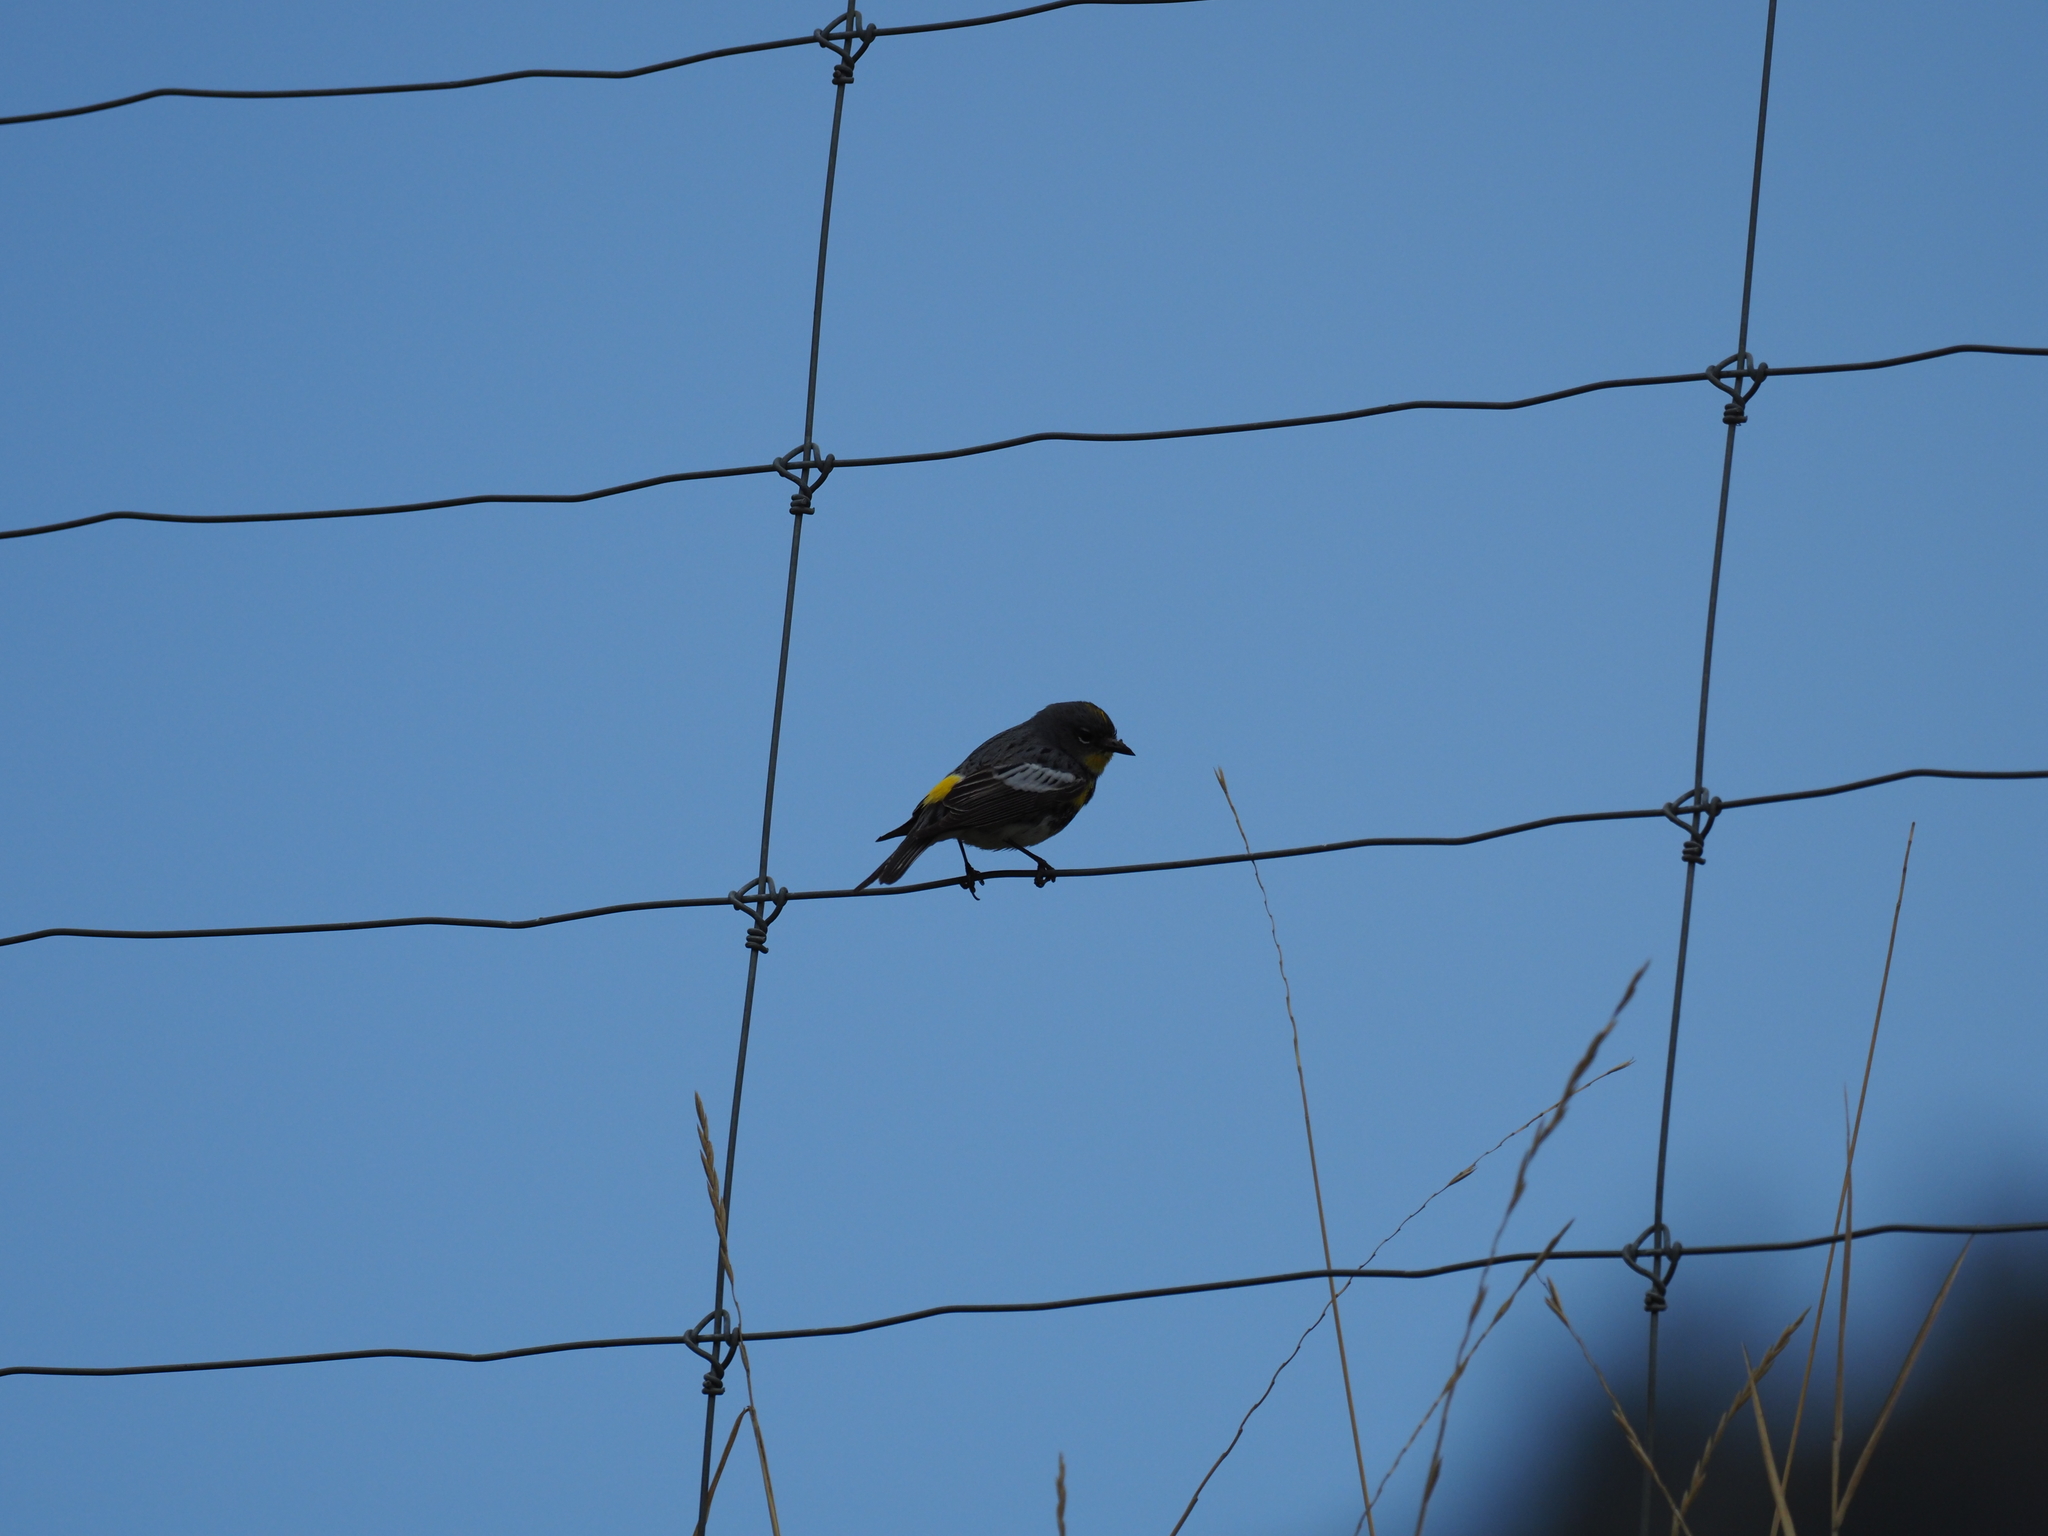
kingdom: Animalia
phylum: Chordata
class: Aves
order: Passeriformes
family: Parulidae
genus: Setophaga
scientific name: Setophaga auduboni
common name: Audubon's warbler
